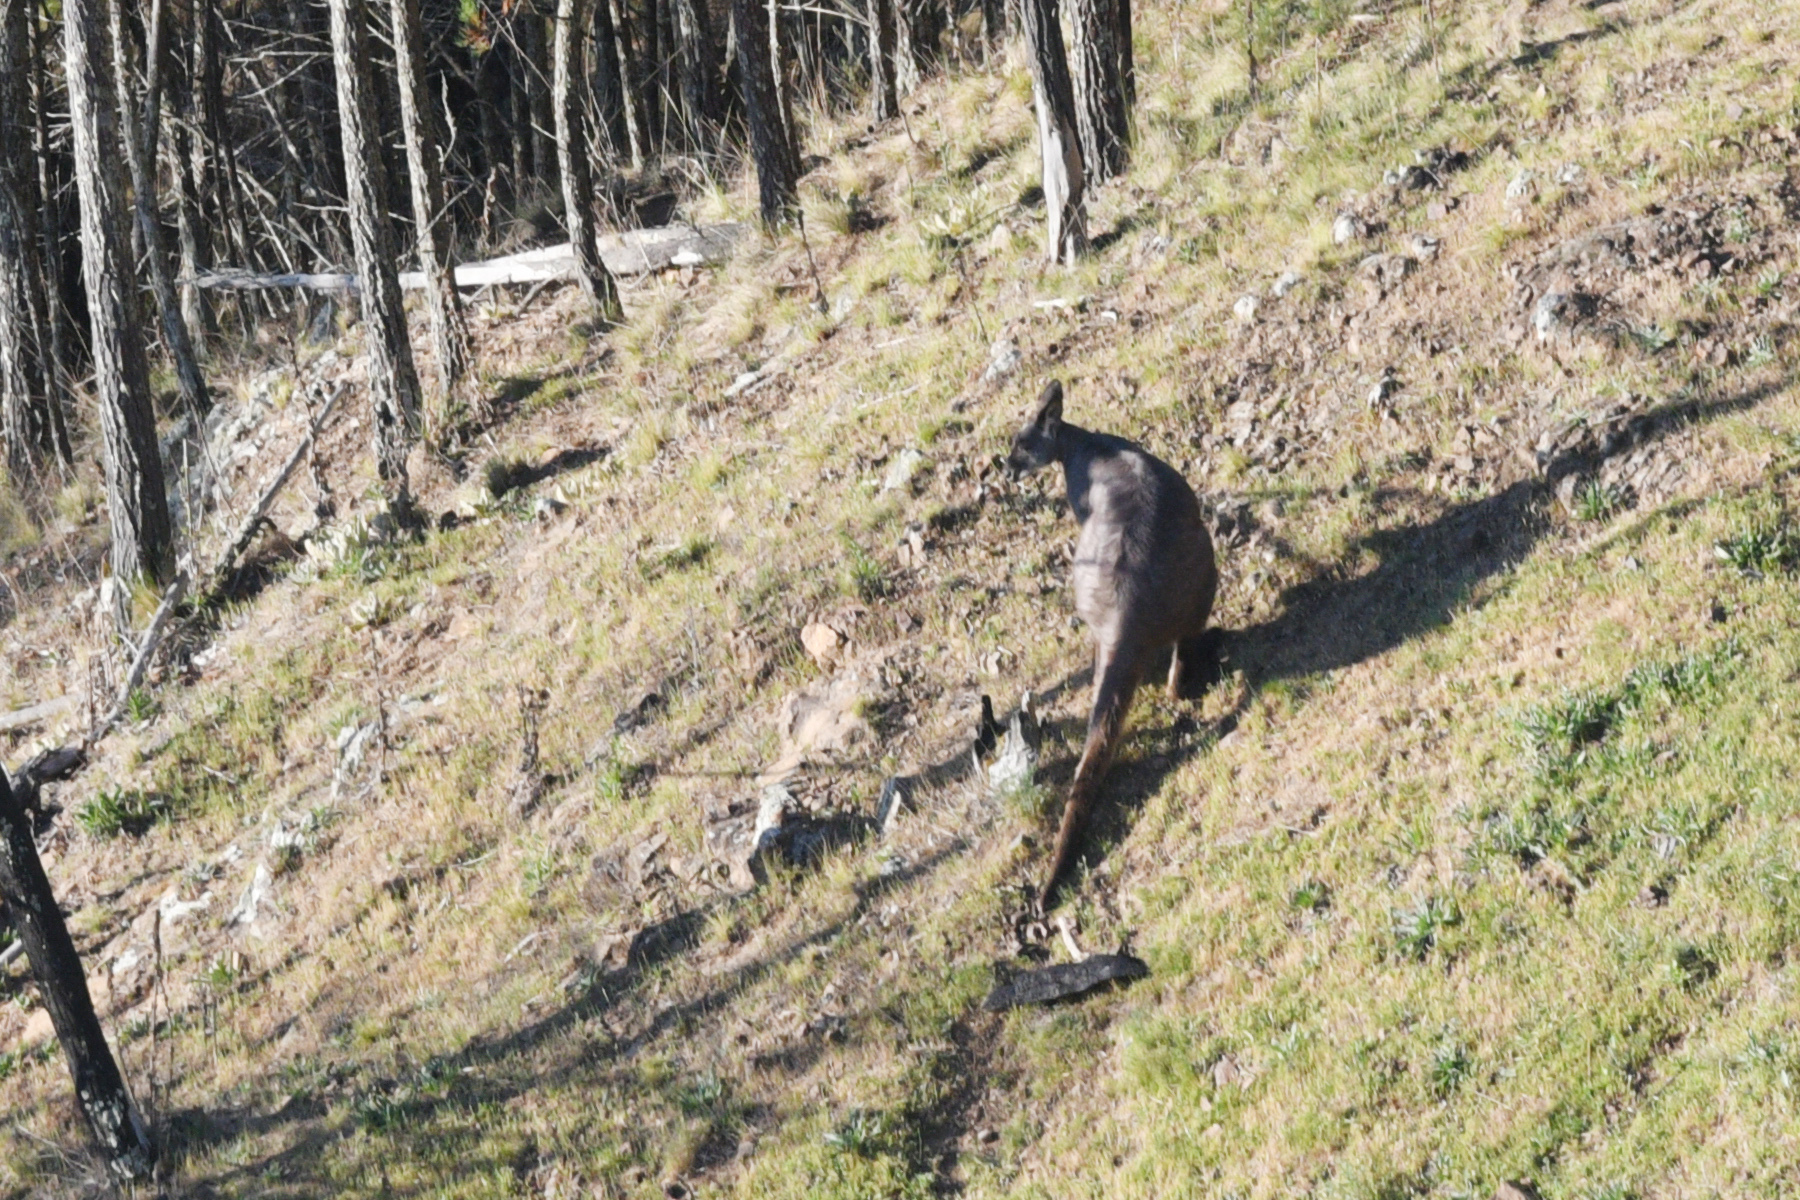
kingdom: Animalia
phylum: Chordata
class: Mammalia
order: Diprotodontia
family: Macropodidae
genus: Macropus
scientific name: Macropus robustus
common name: Eastern wallaroo
